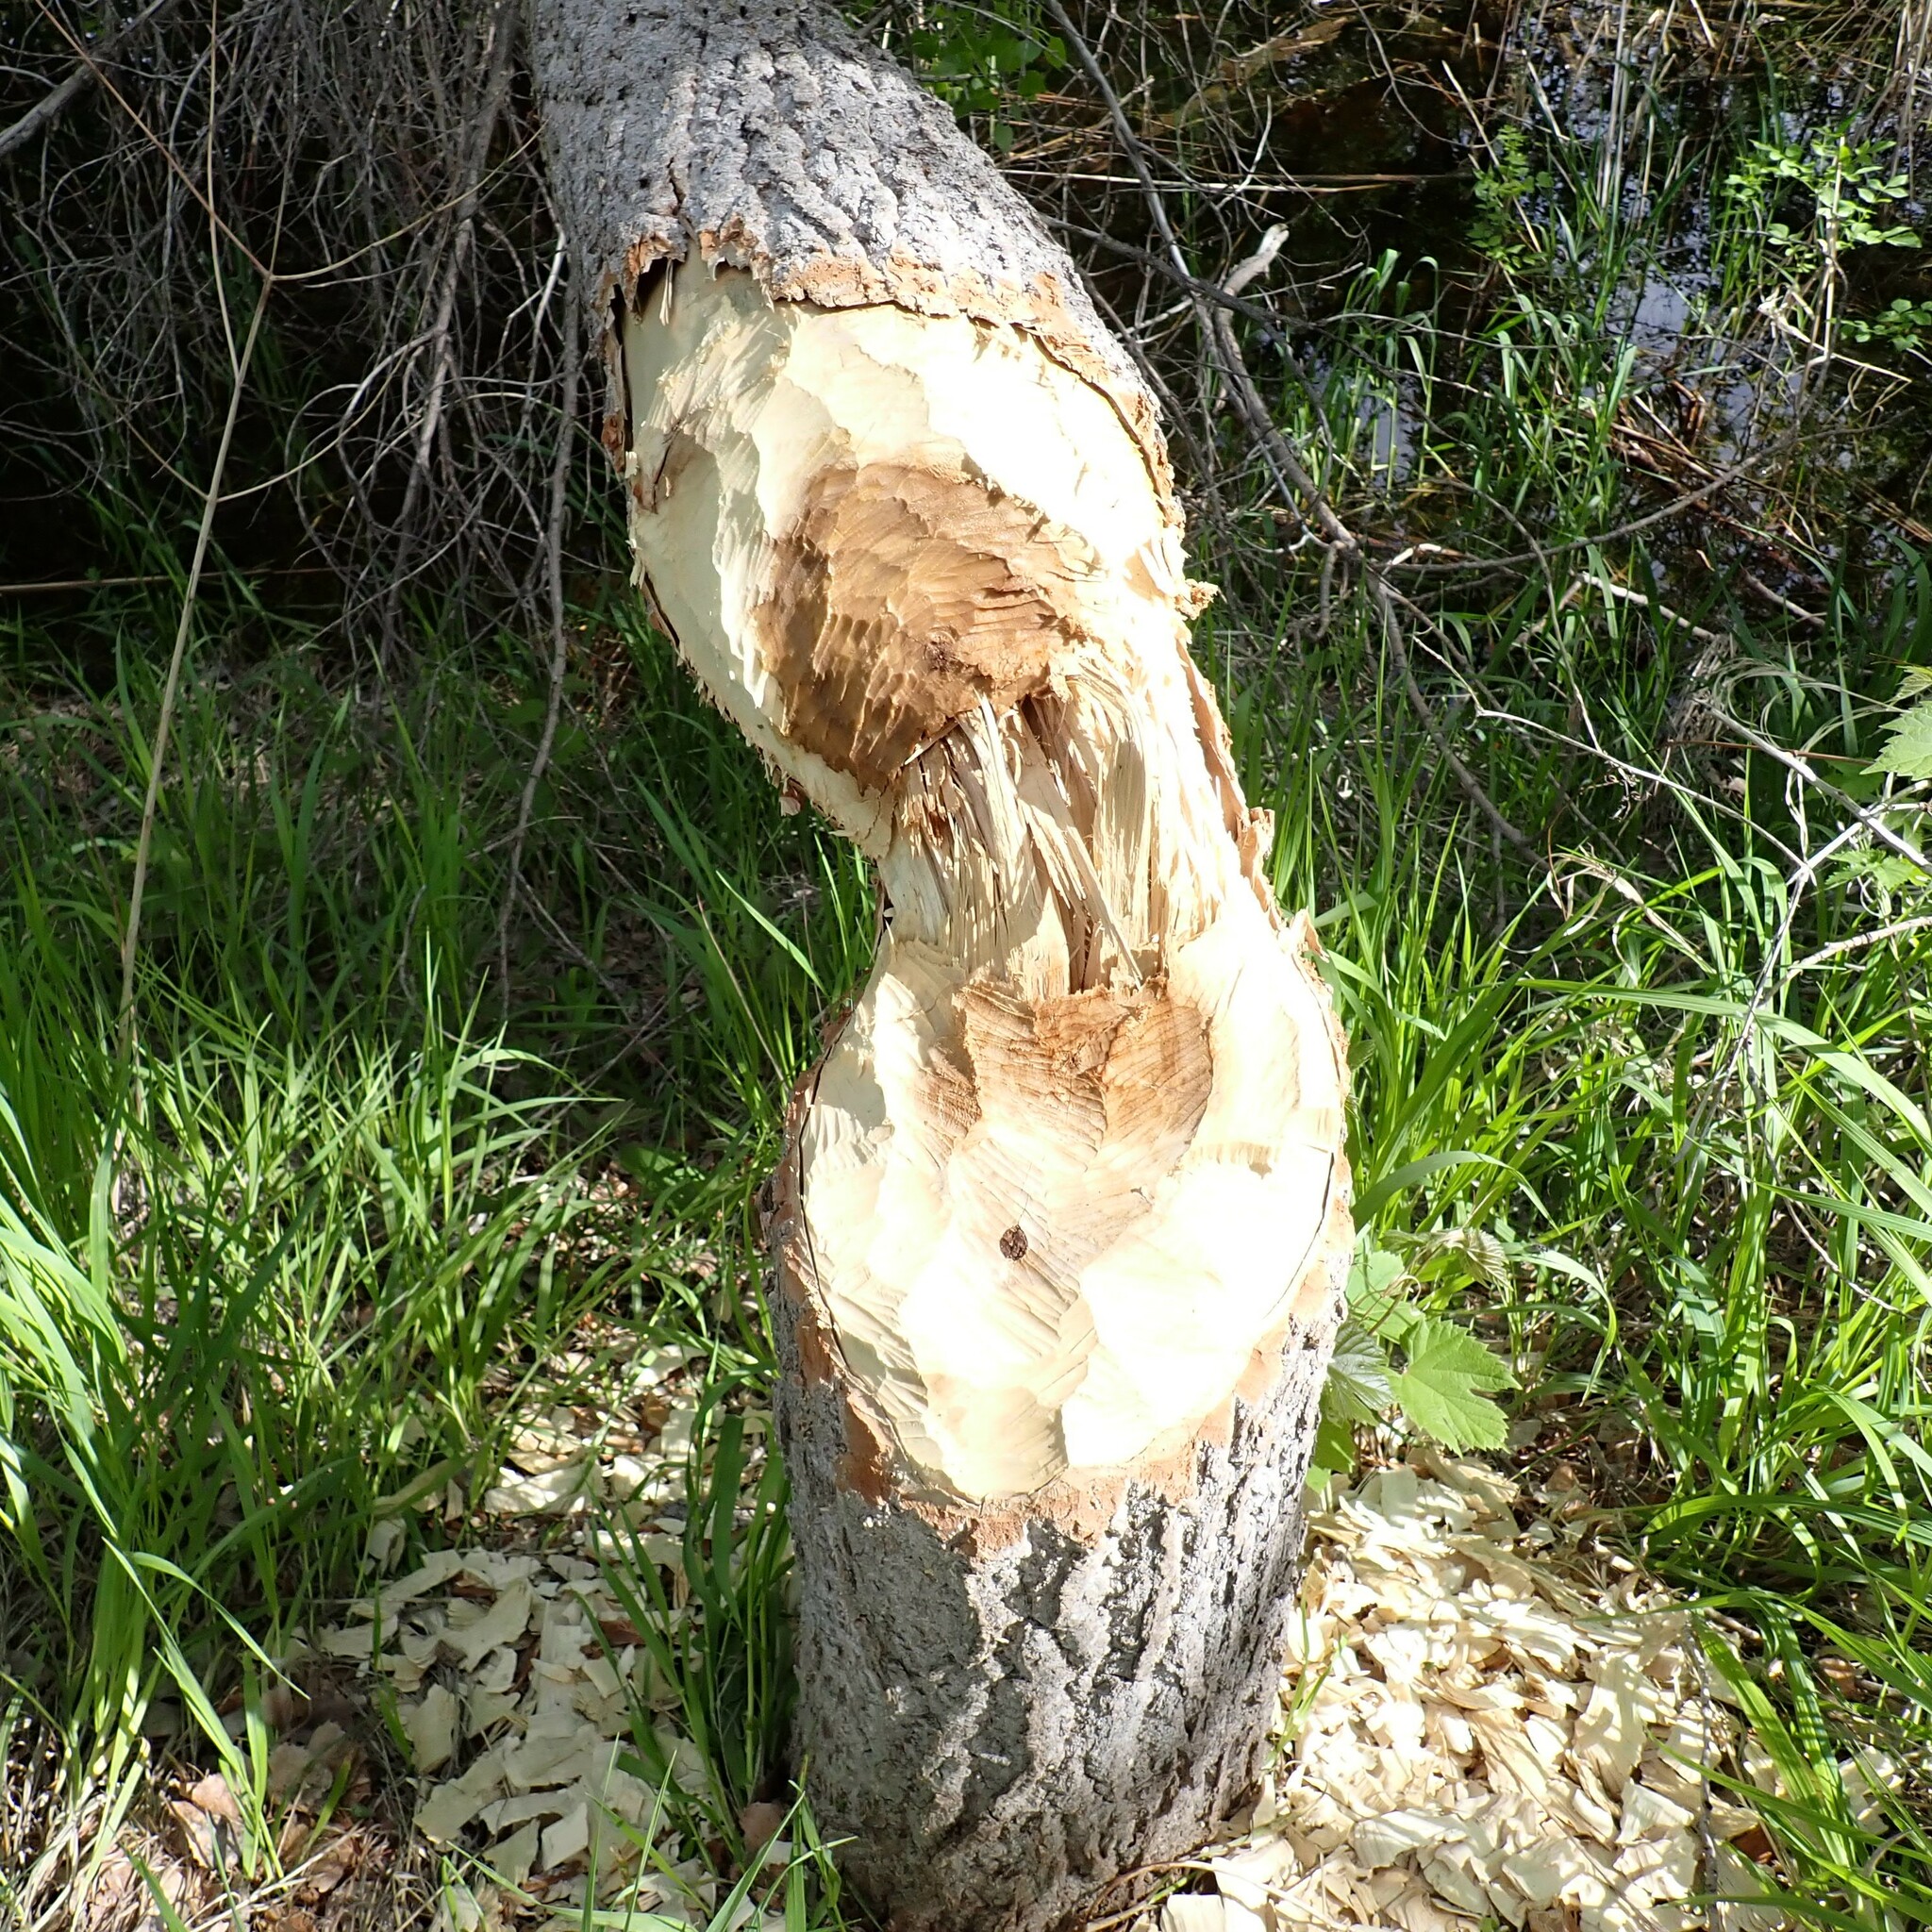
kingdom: Animalia
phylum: Chordata
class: Mammalia
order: Rodentia
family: Castoridae
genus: Castor
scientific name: Castor canadensis
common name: American beaver
